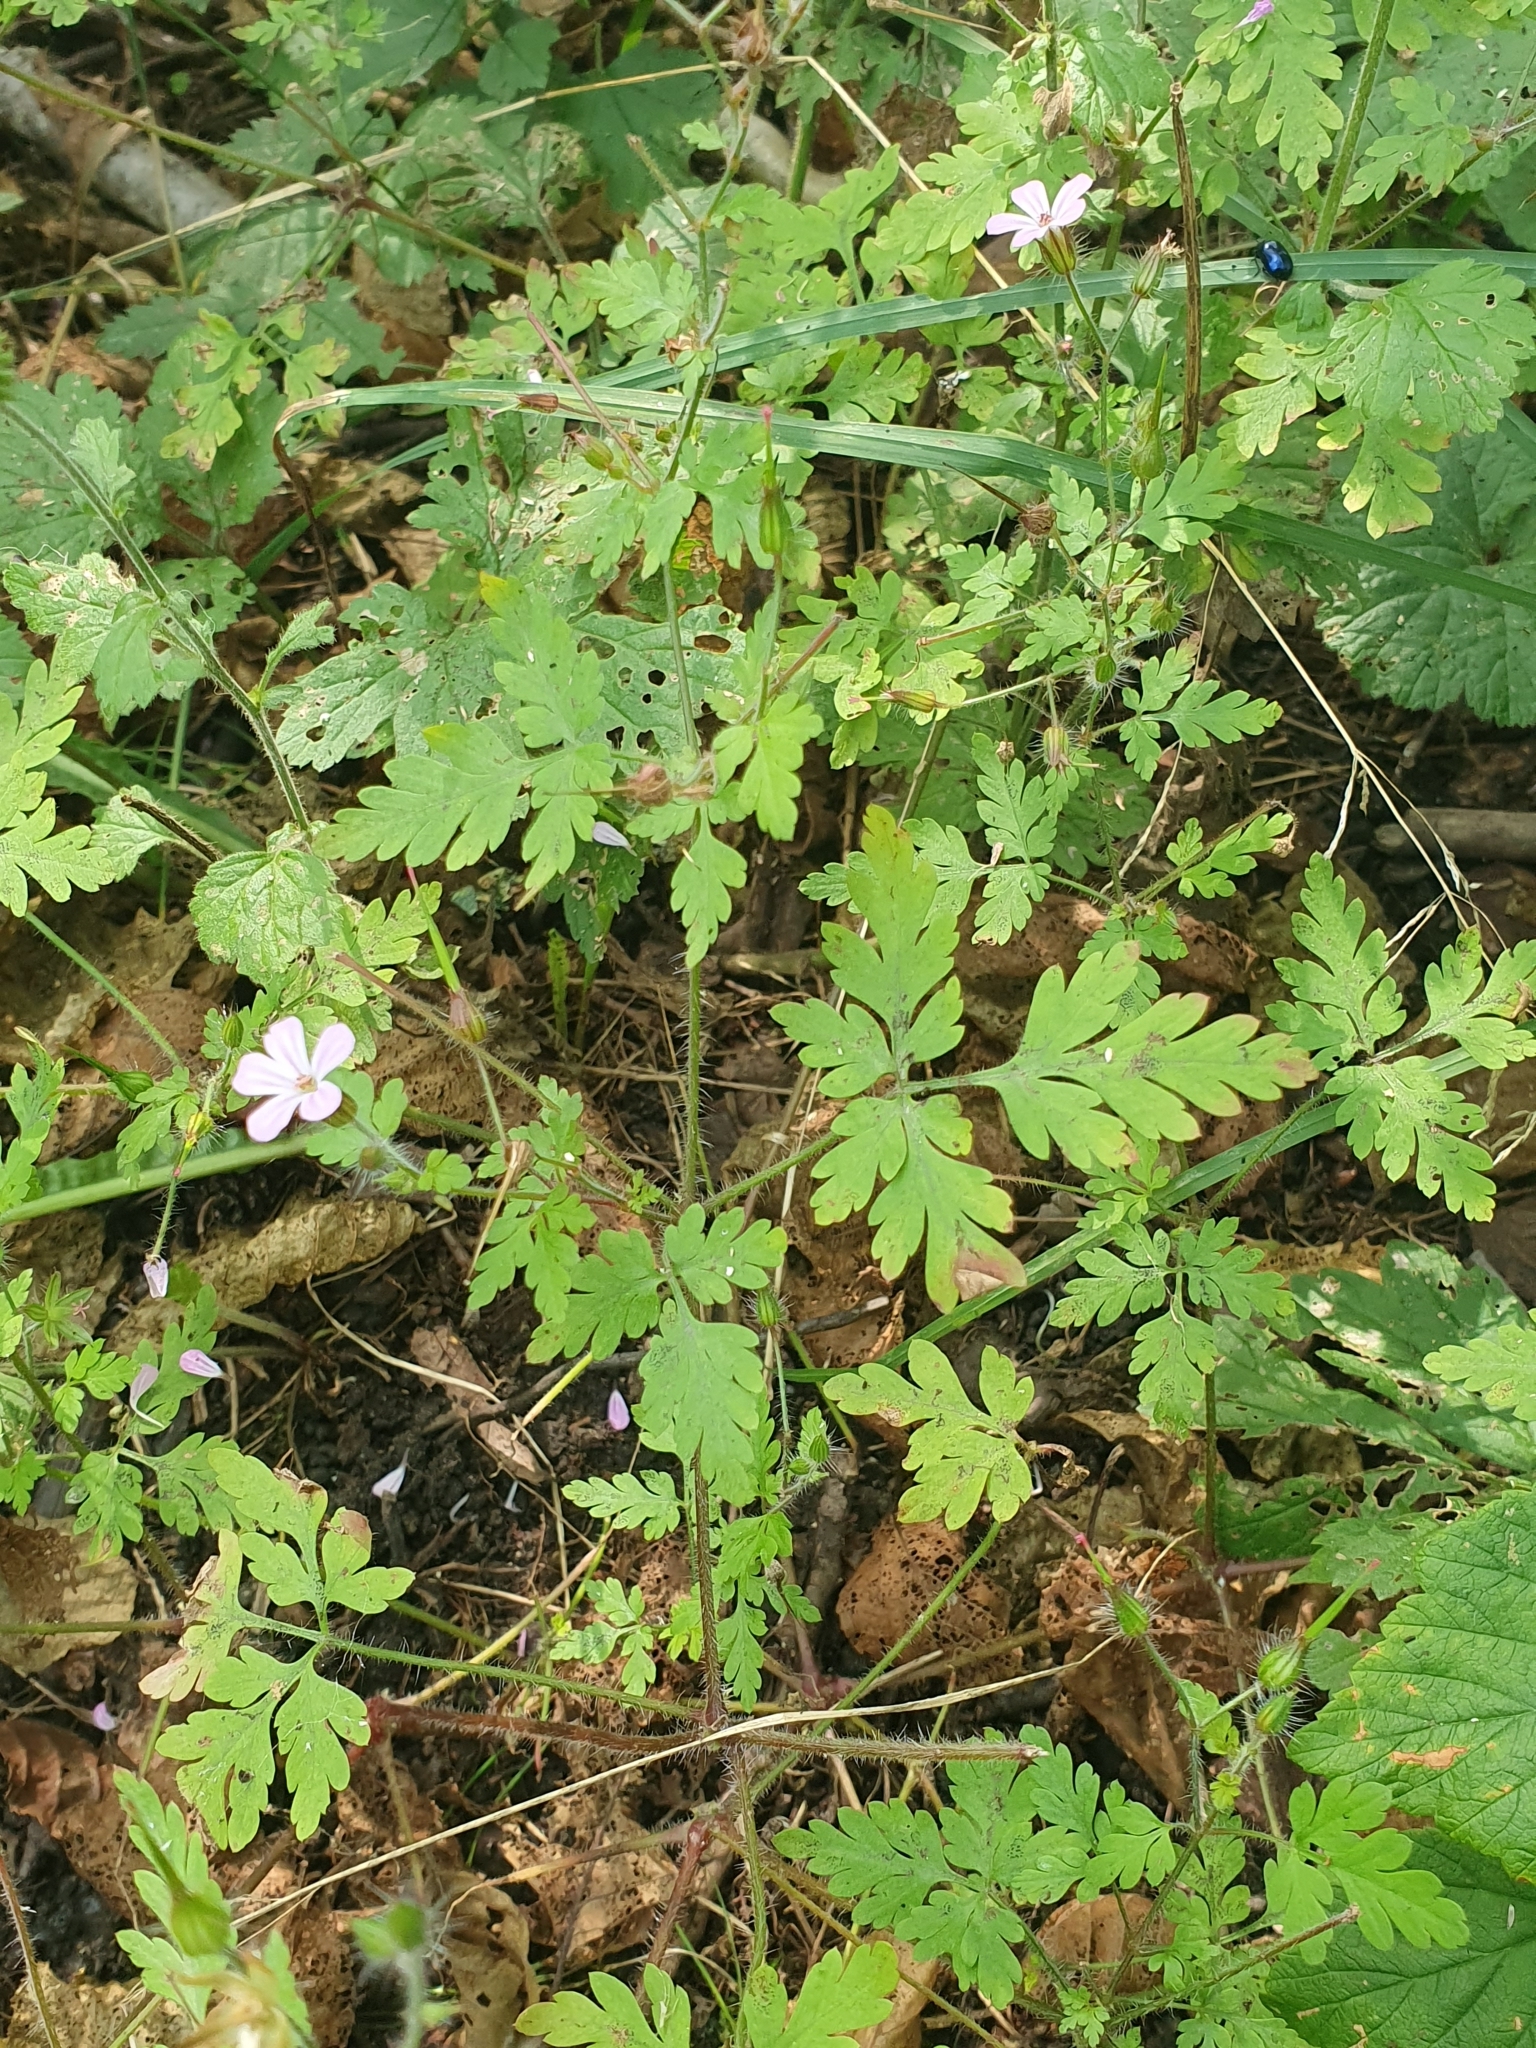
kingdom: Plantae
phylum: Tracheophyta
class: Magnoliopsida
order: Geraniales
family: Geraniaceae
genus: Geranium
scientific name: Geranium robertianum
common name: Herb-robert
